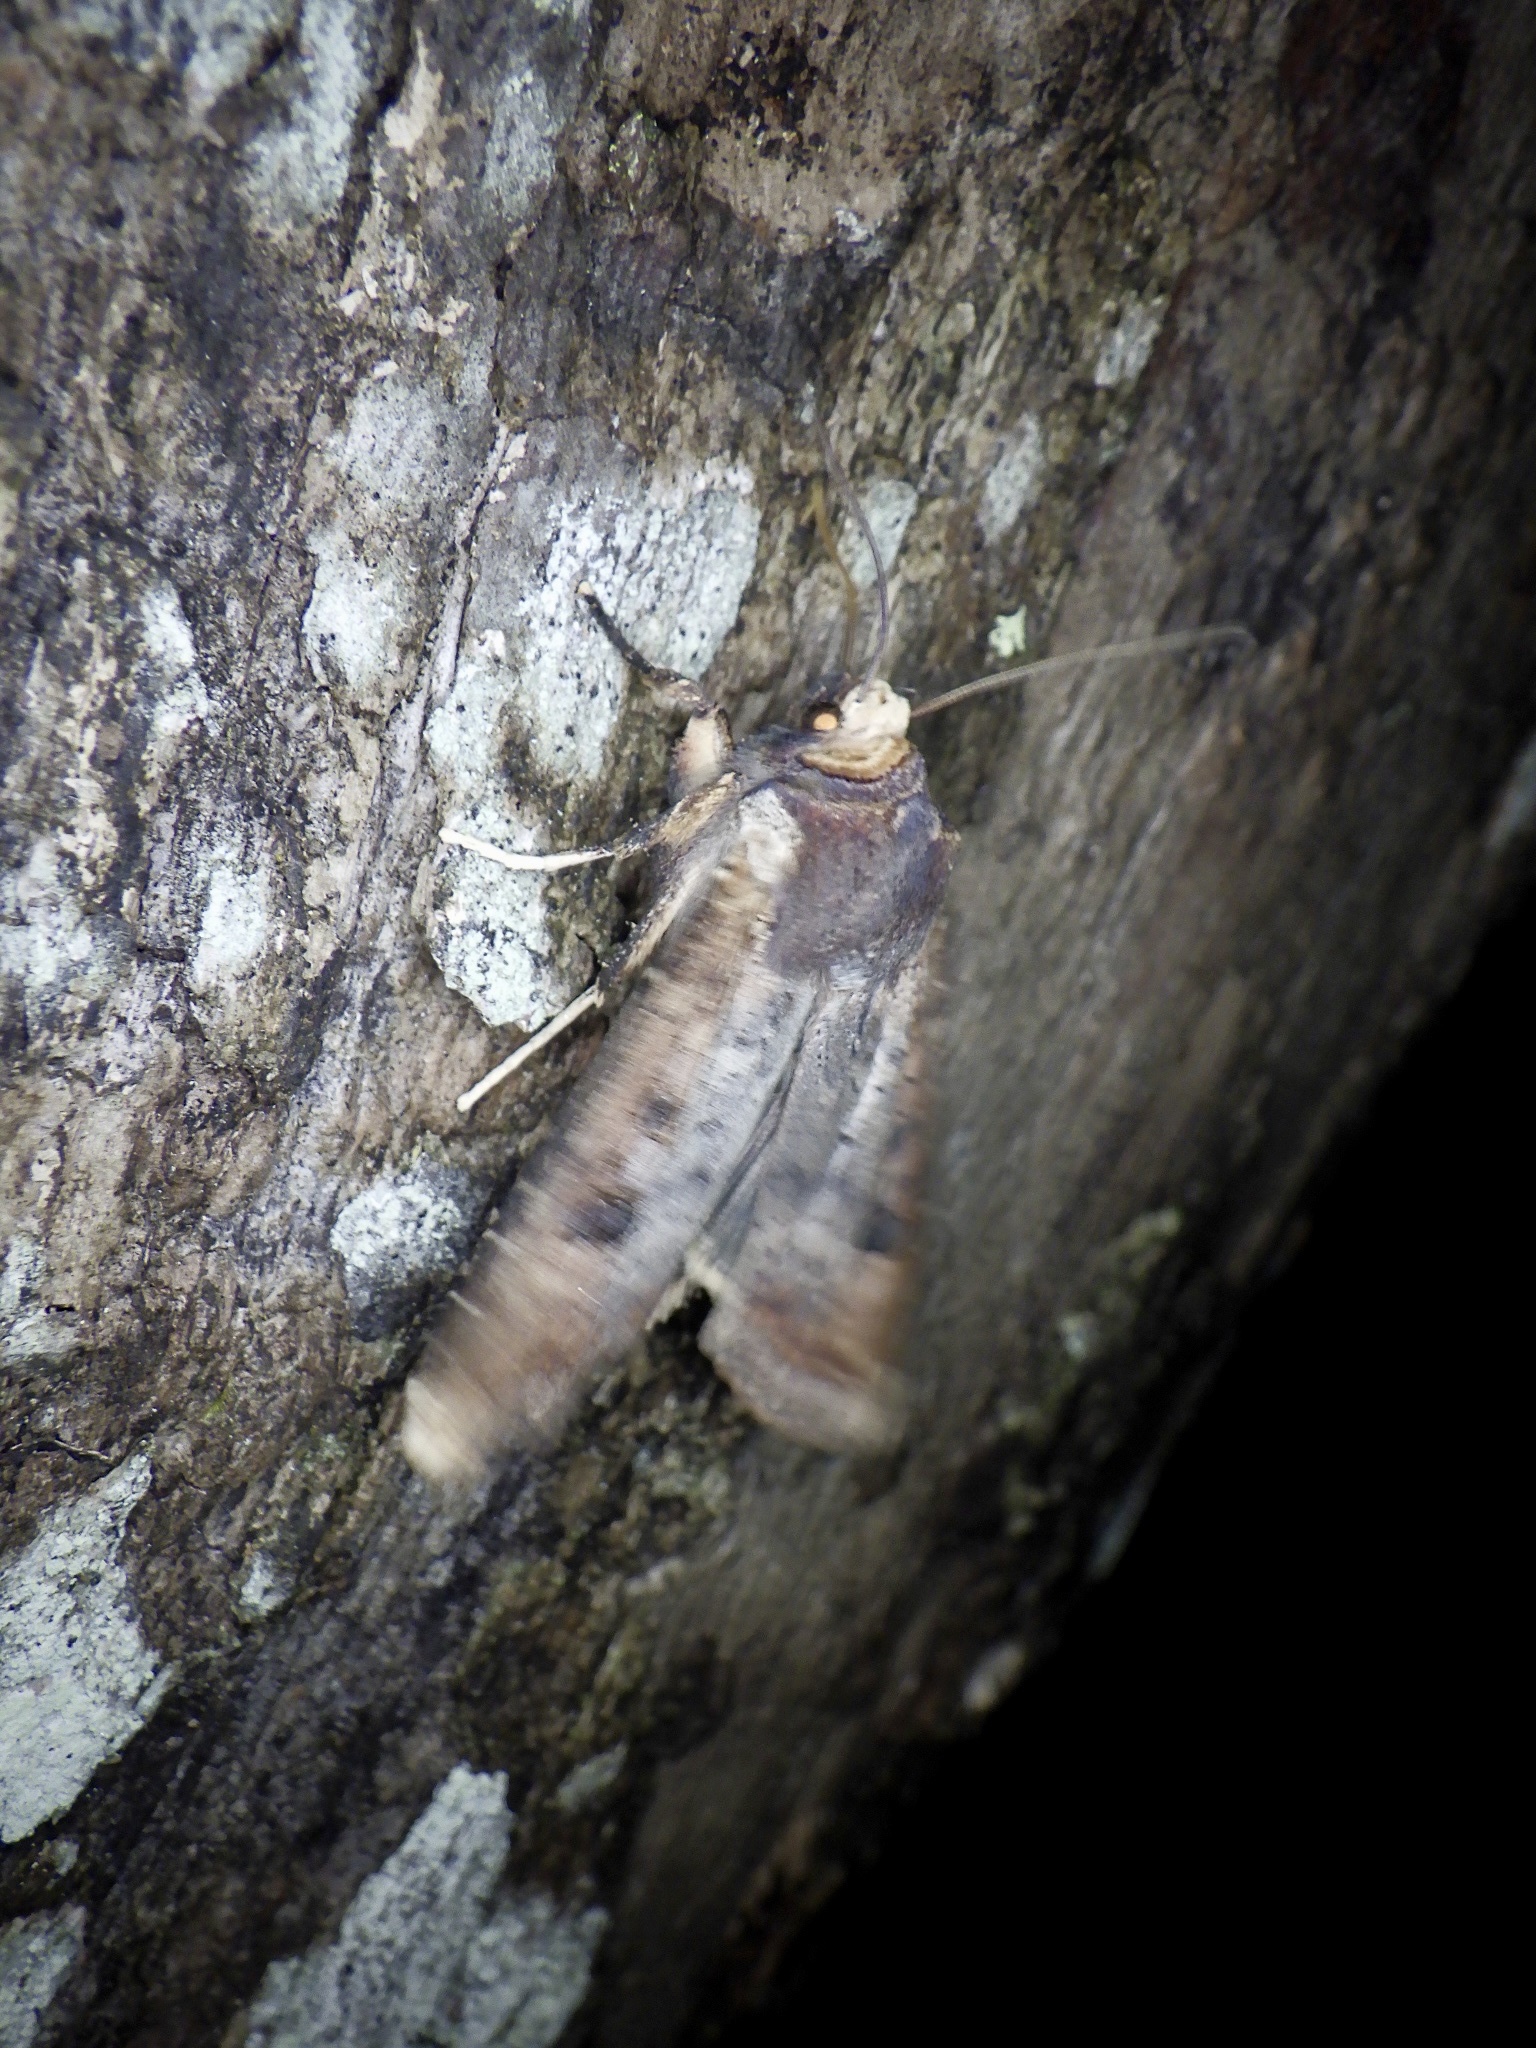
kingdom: Animalia
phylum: Arthropoda
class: Insecta
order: Lepidoptera
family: Noctuidae
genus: Xylena
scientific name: Xylena formosa
